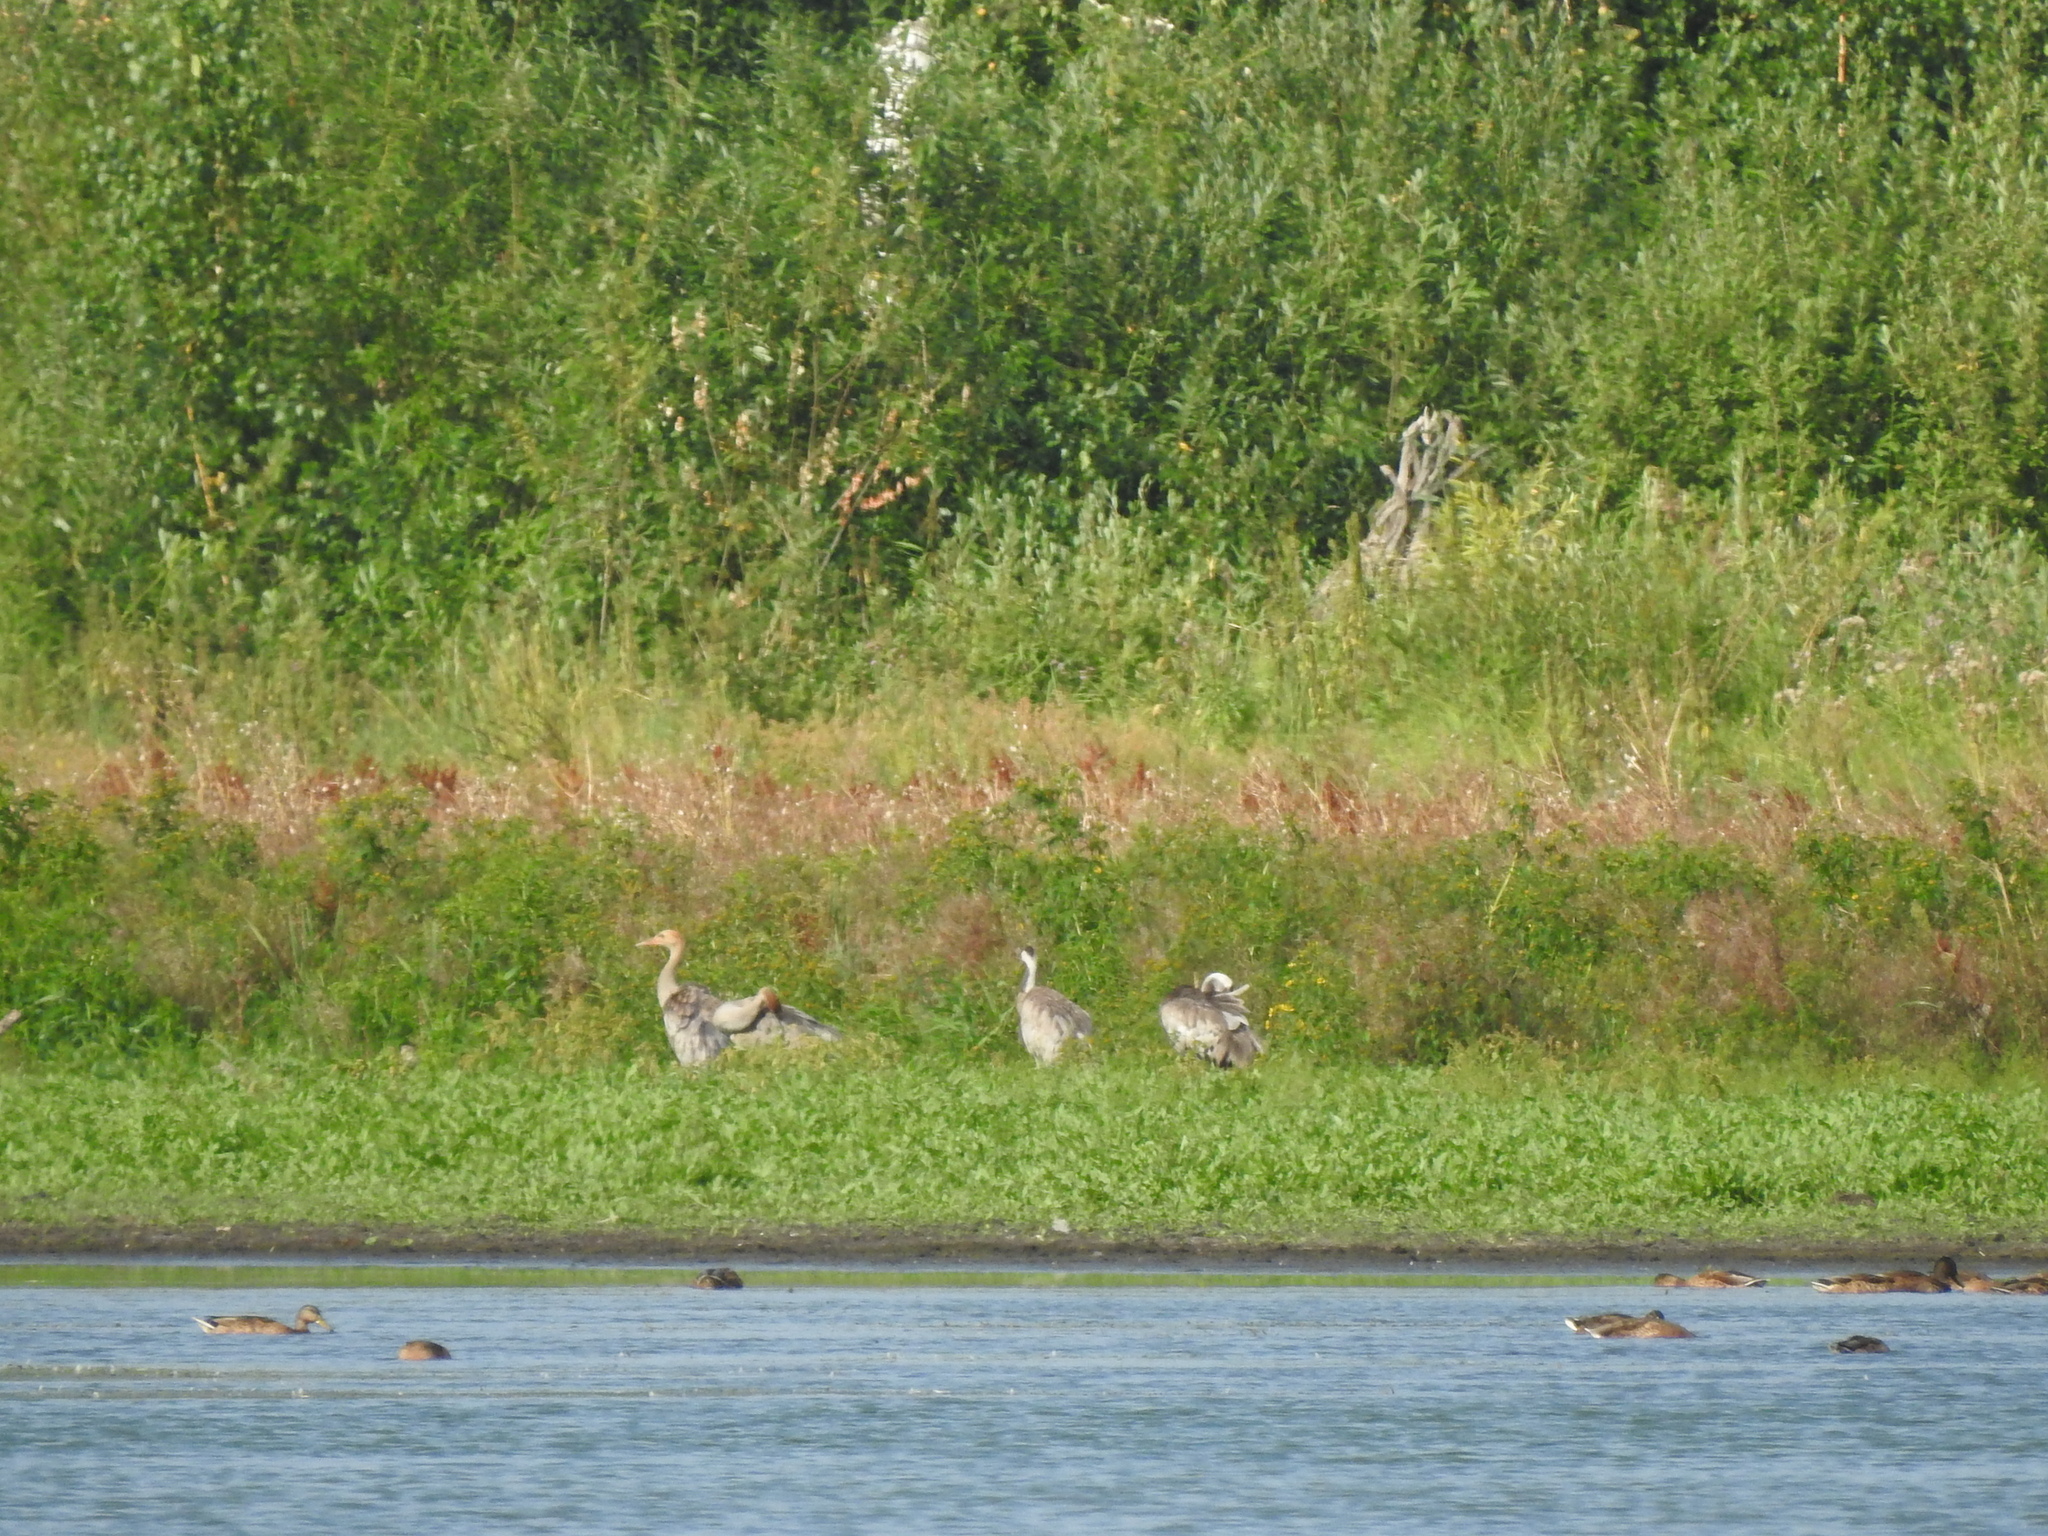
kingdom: Animalia
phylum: Chordata
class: Aves
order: Gruiformes
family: Gruidae
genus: Grus
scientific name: Grus grus
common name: Common crane
